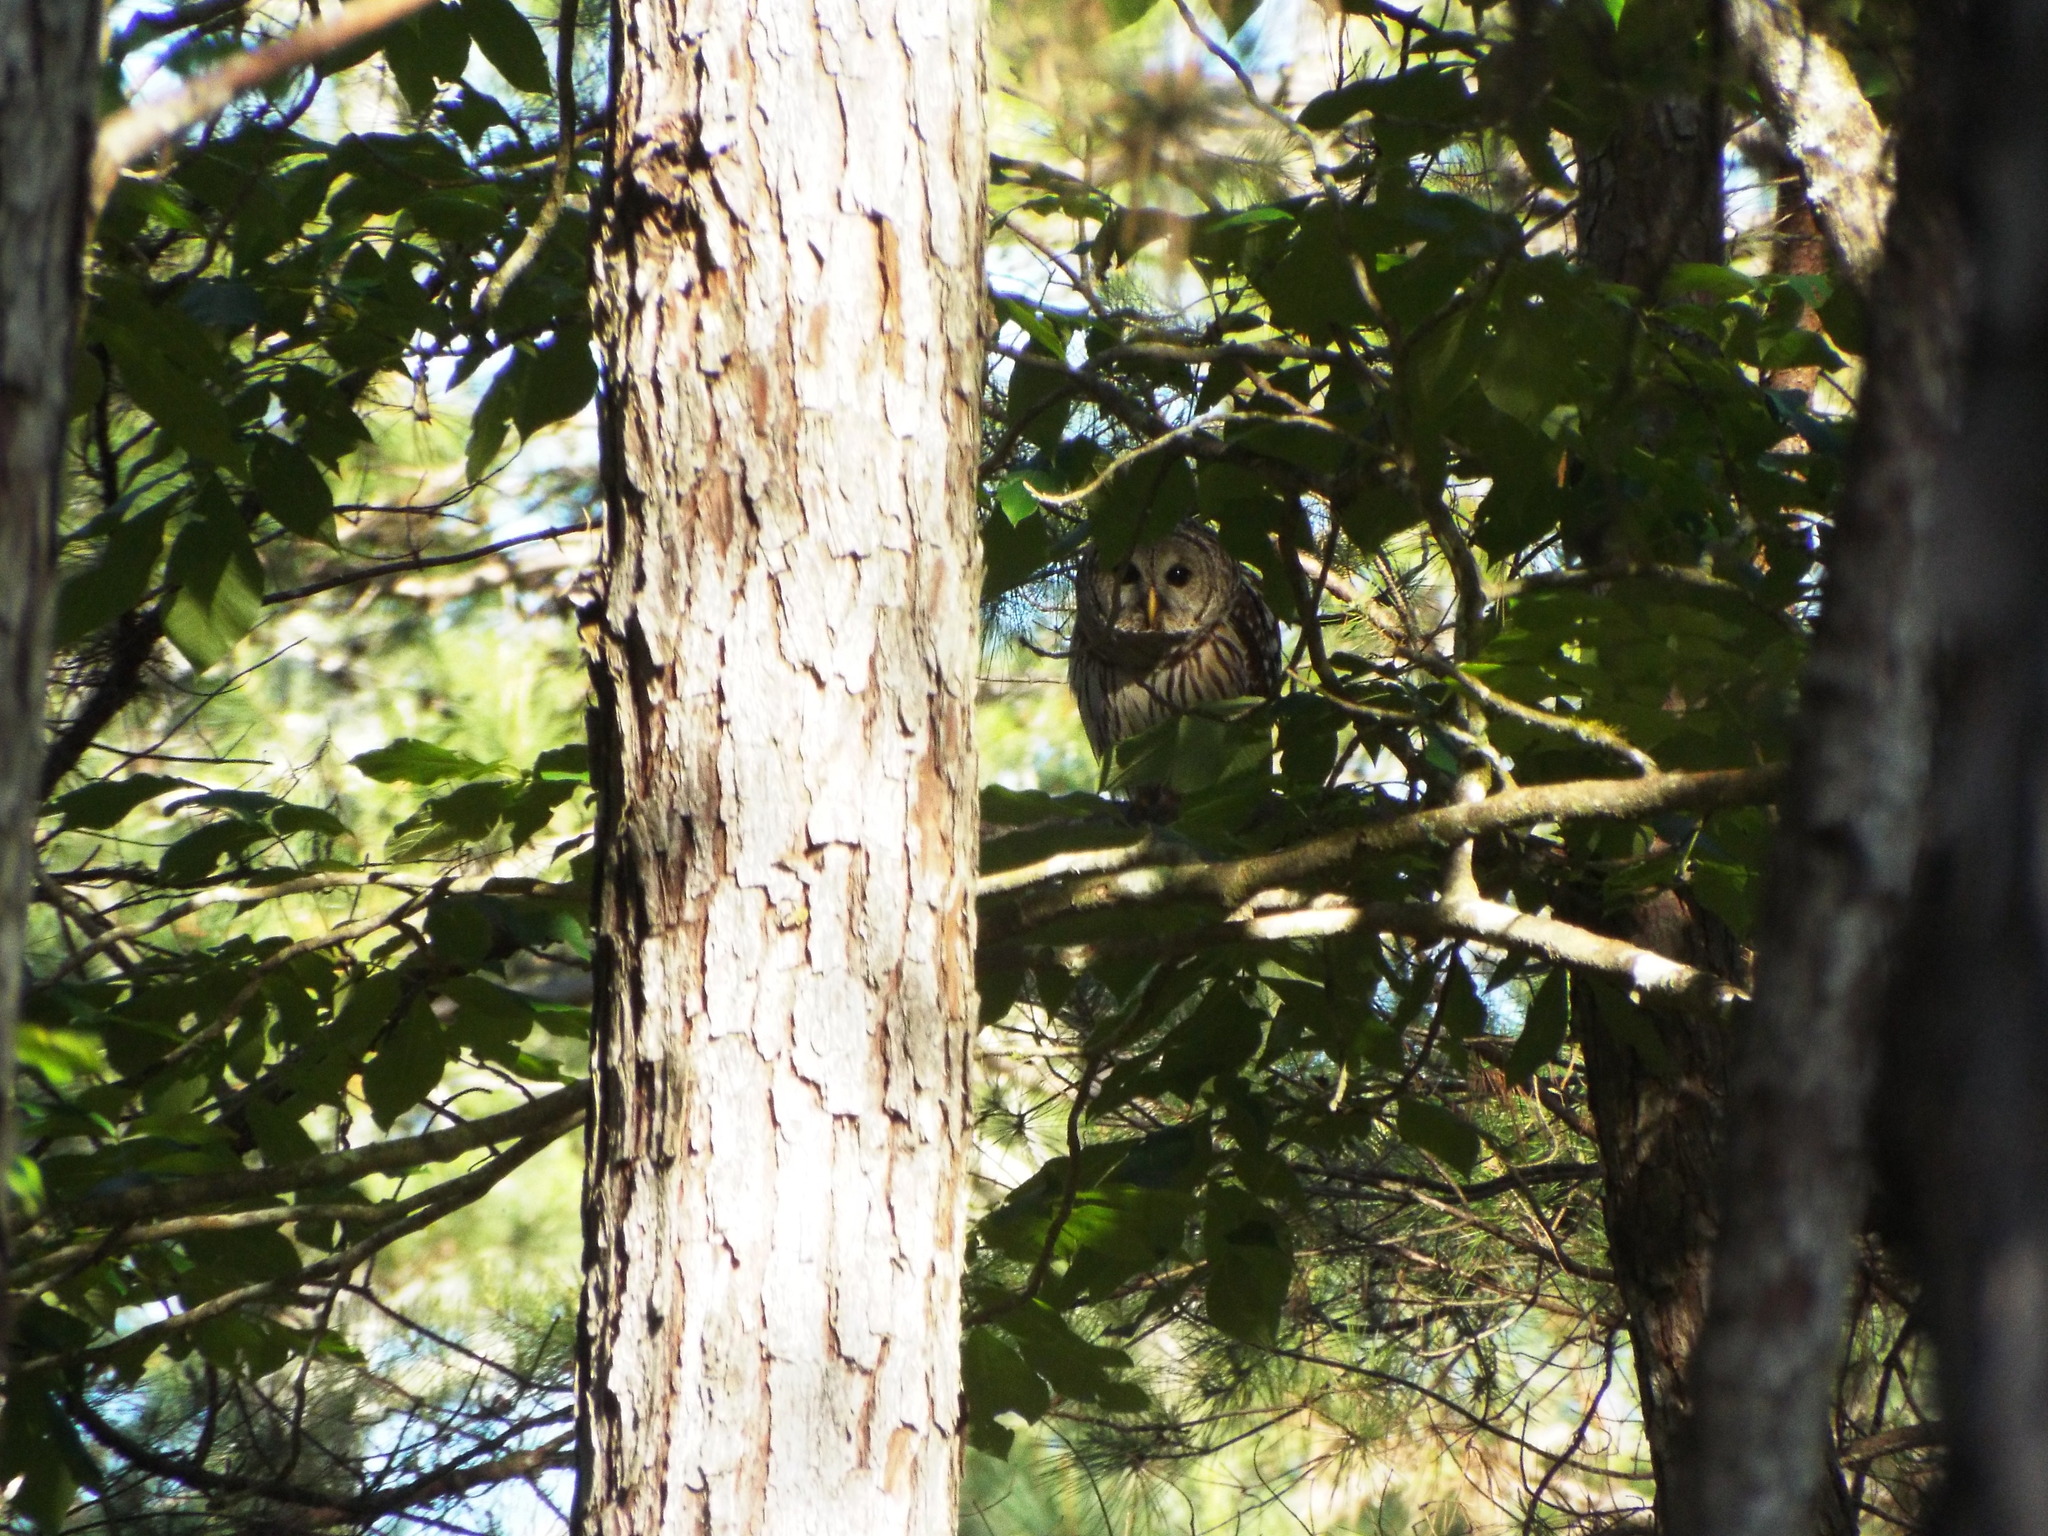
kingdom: Animalia
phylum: Chordata
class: Aves
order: Strigiformes
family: Strigidae
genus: Strix
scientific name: Strix varia
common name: Barred owl
